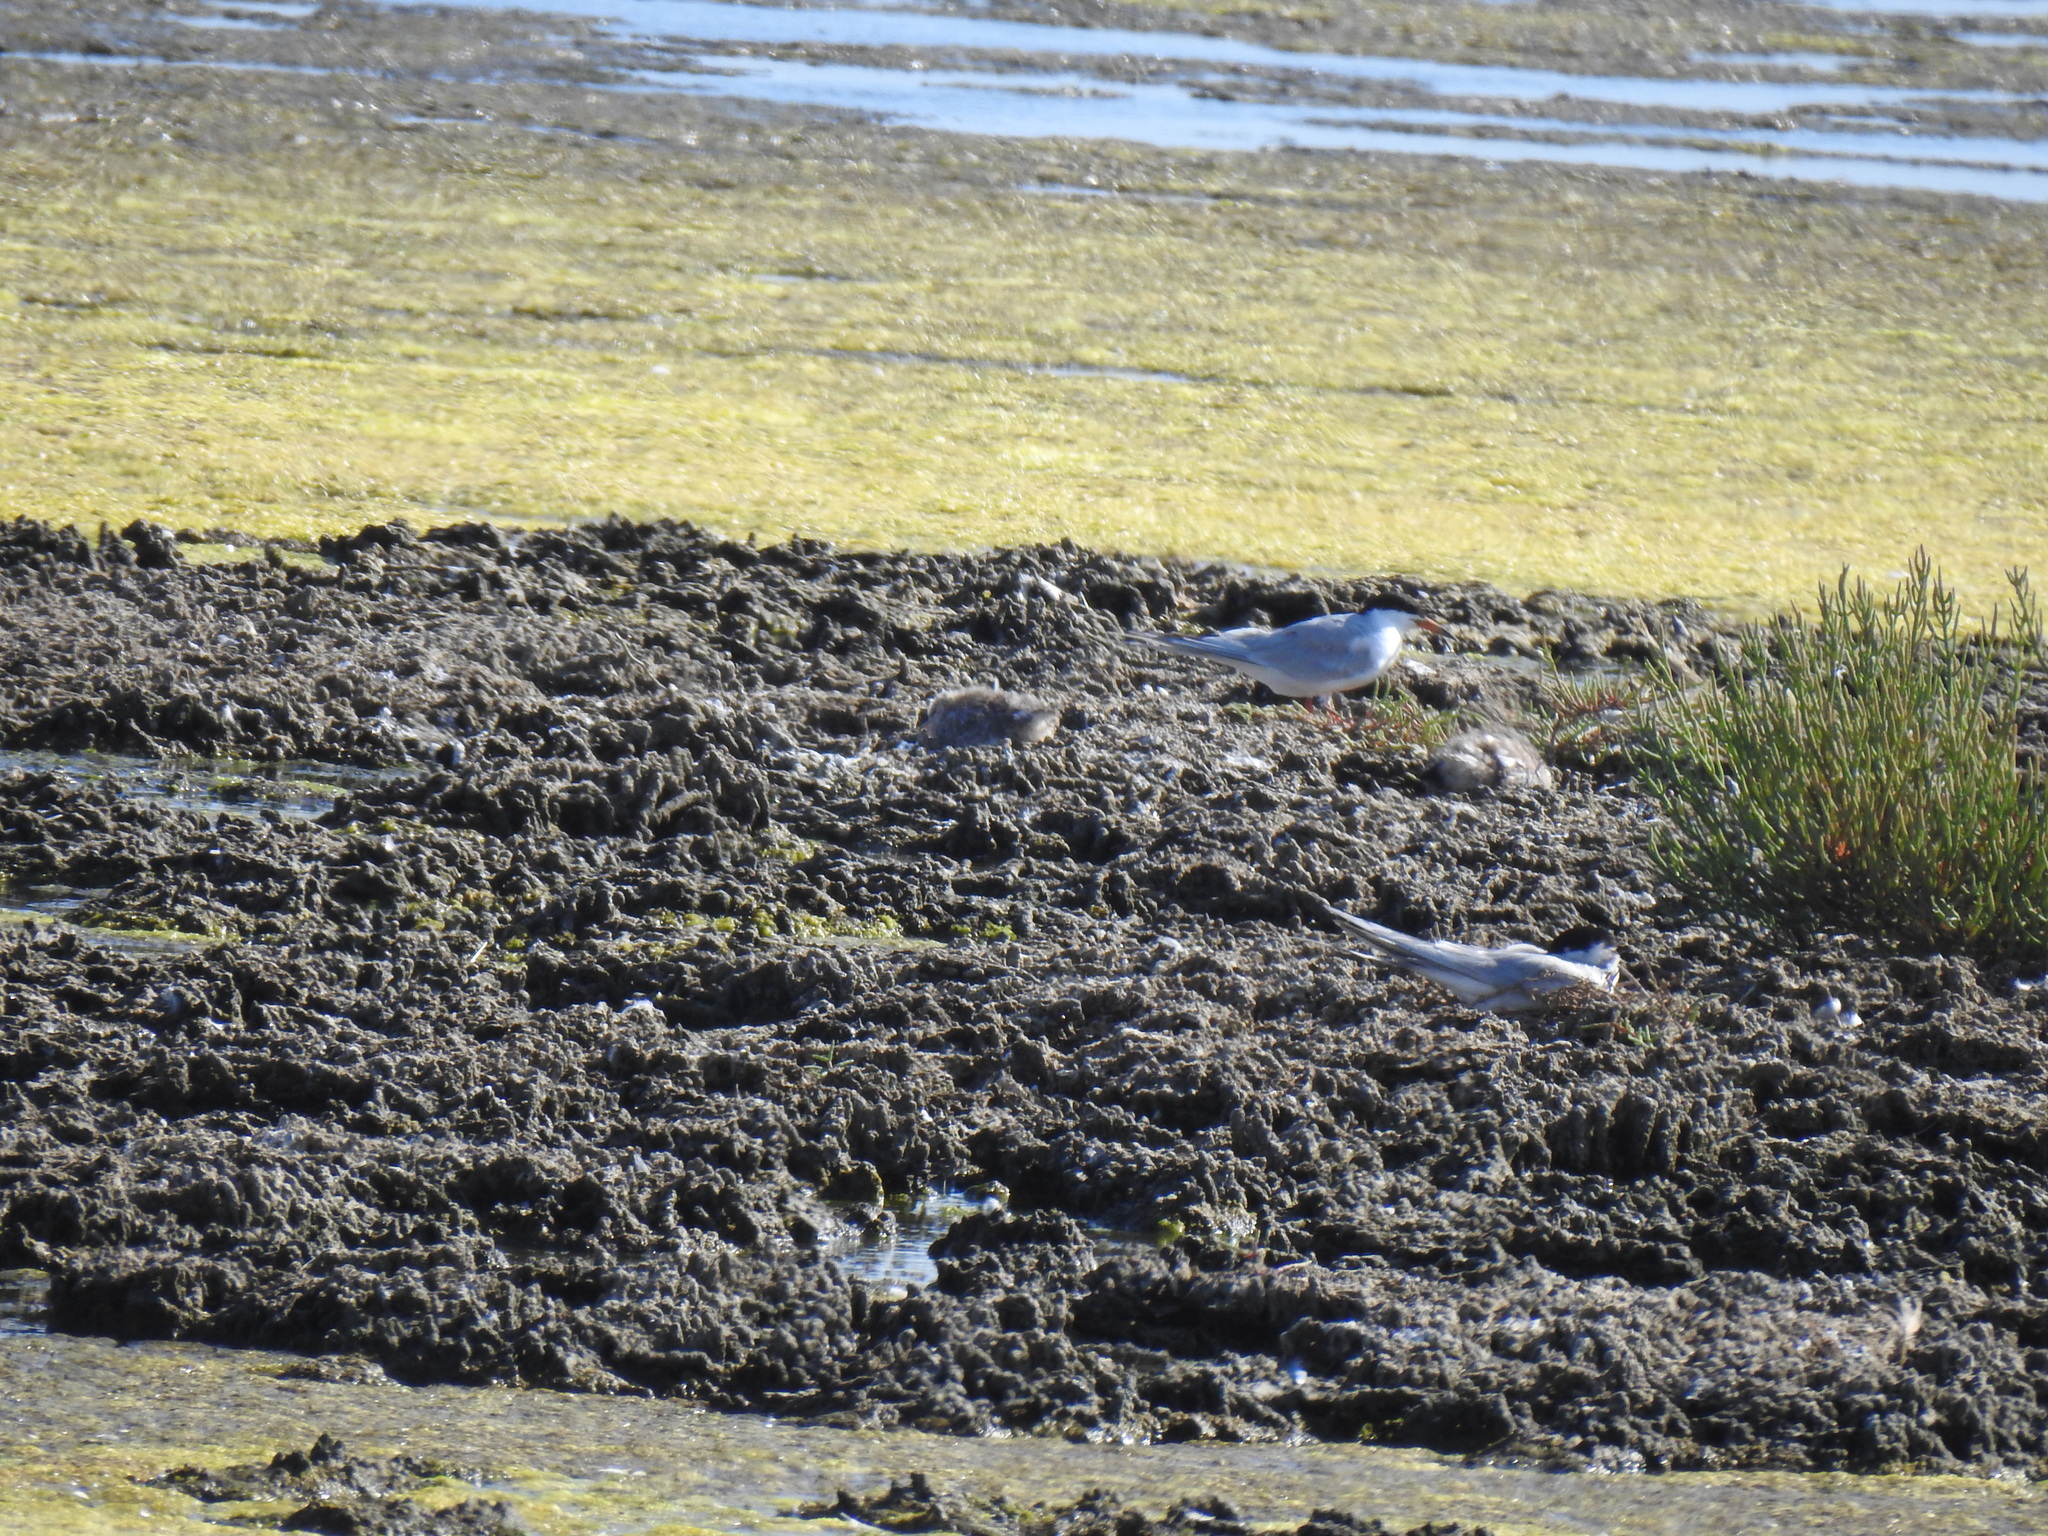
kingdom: Animalia
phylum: Chordata
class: Aves
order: Charadriiformes
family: Laridae
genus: Sterna
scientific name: Sterna forsteri
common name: Forster's tern
